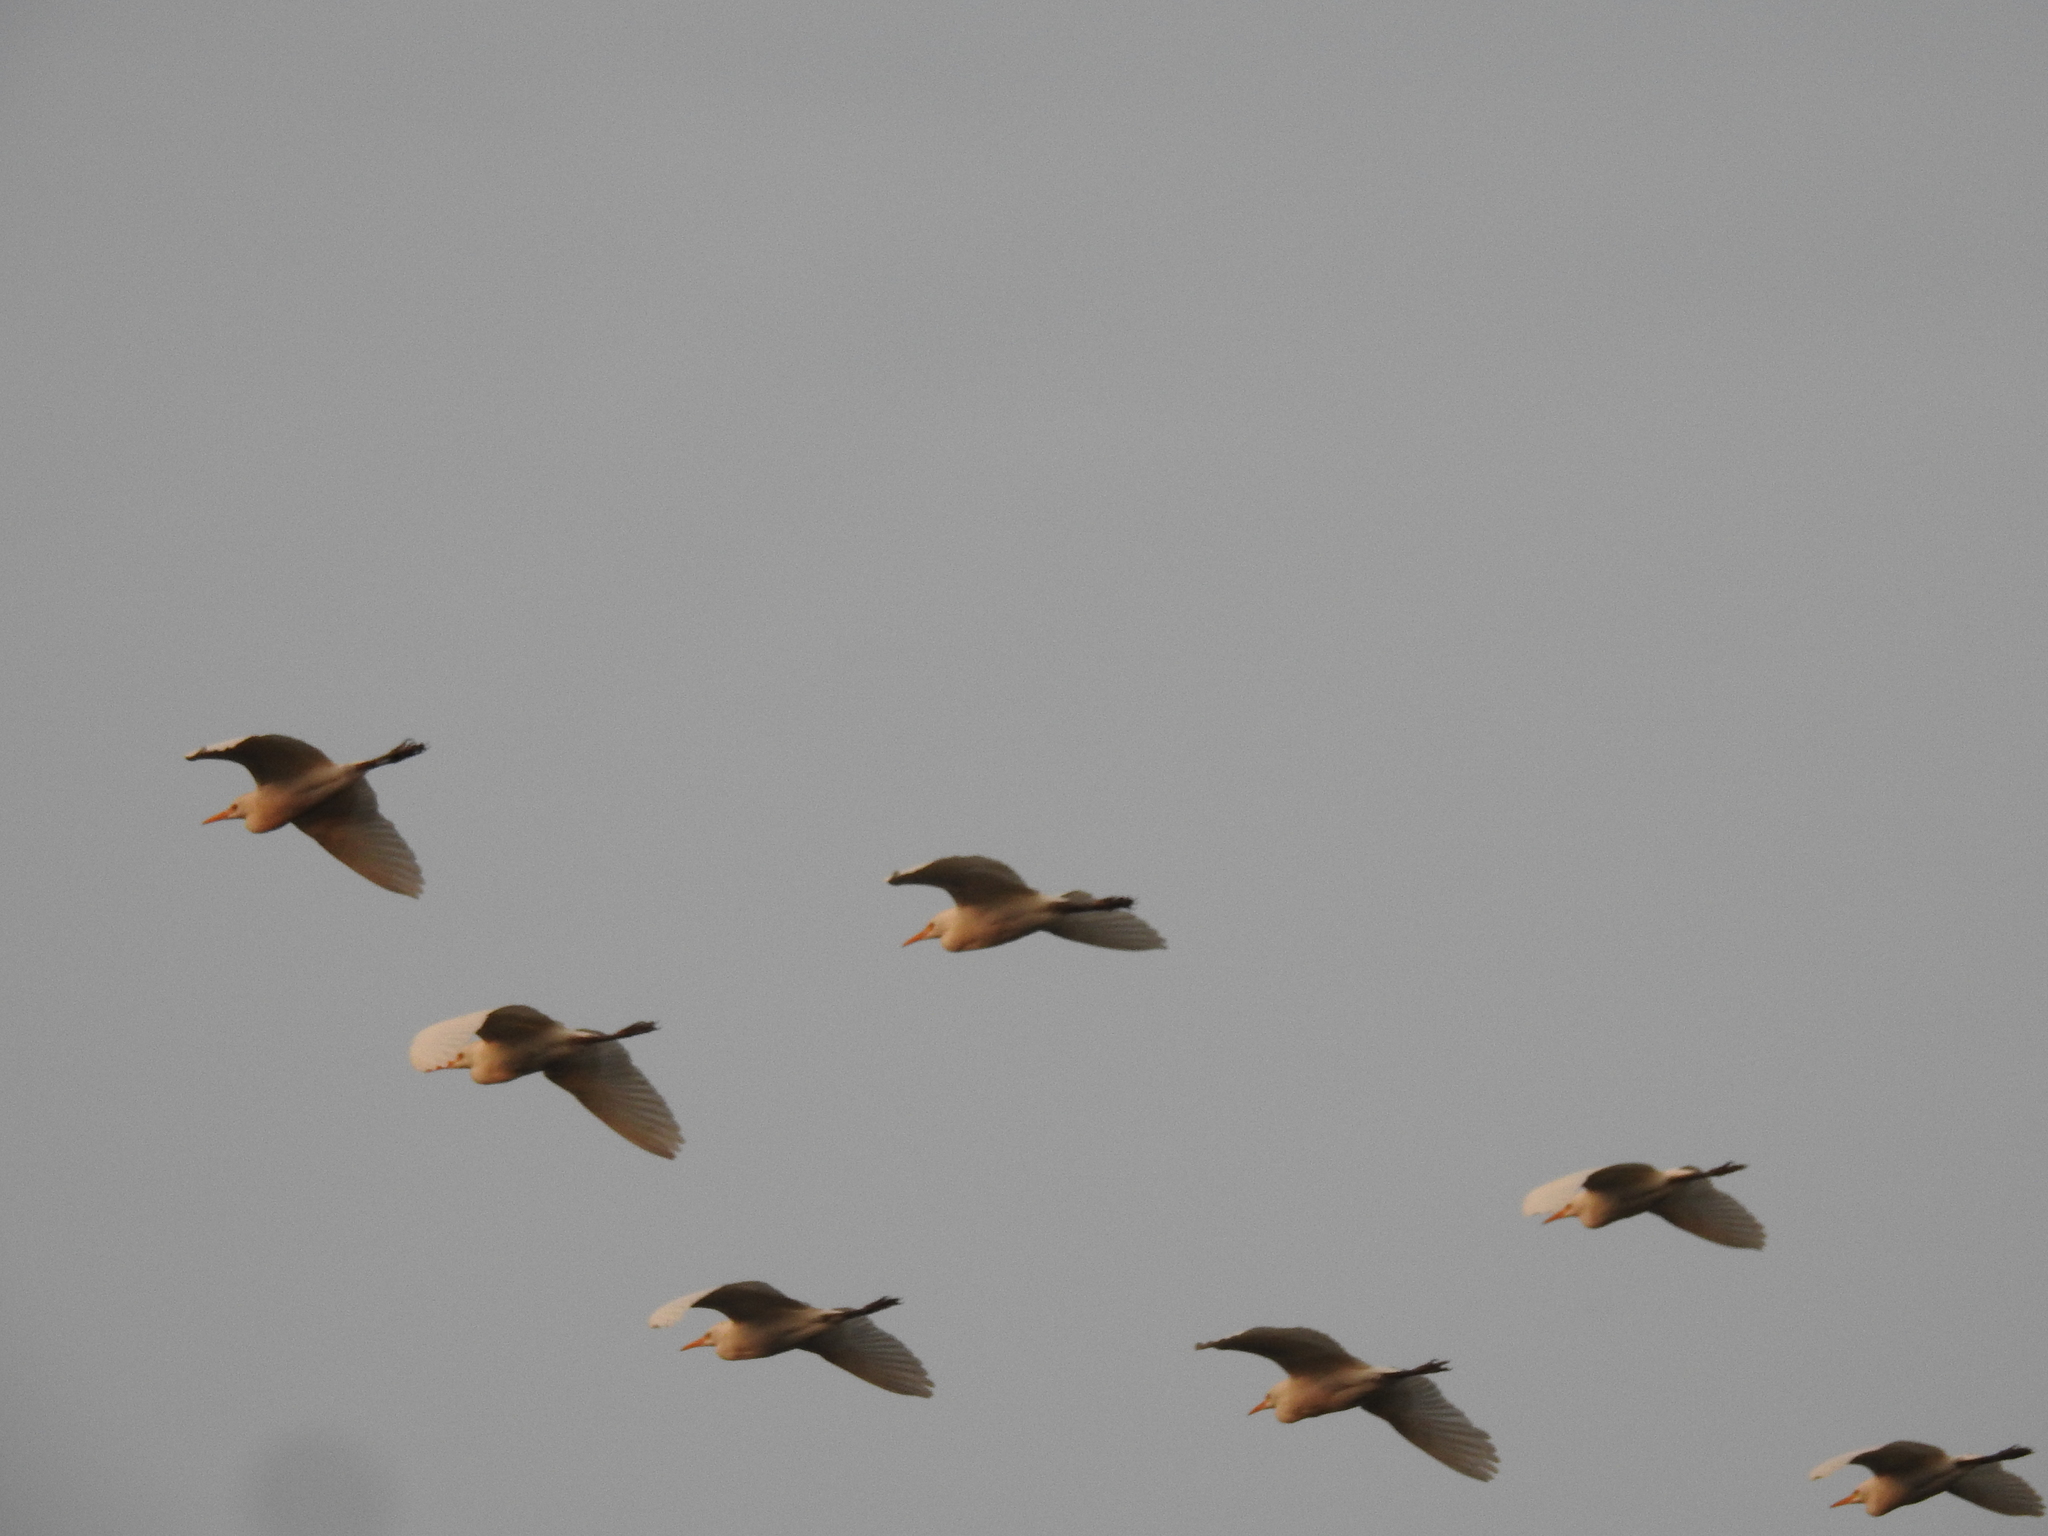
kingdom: Animalia
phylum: Chordata
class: Aves
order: Pelecaniformes
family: Ardeidae
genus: Bubulcus
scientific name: Bubulcus ibis
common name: Cattle egret
